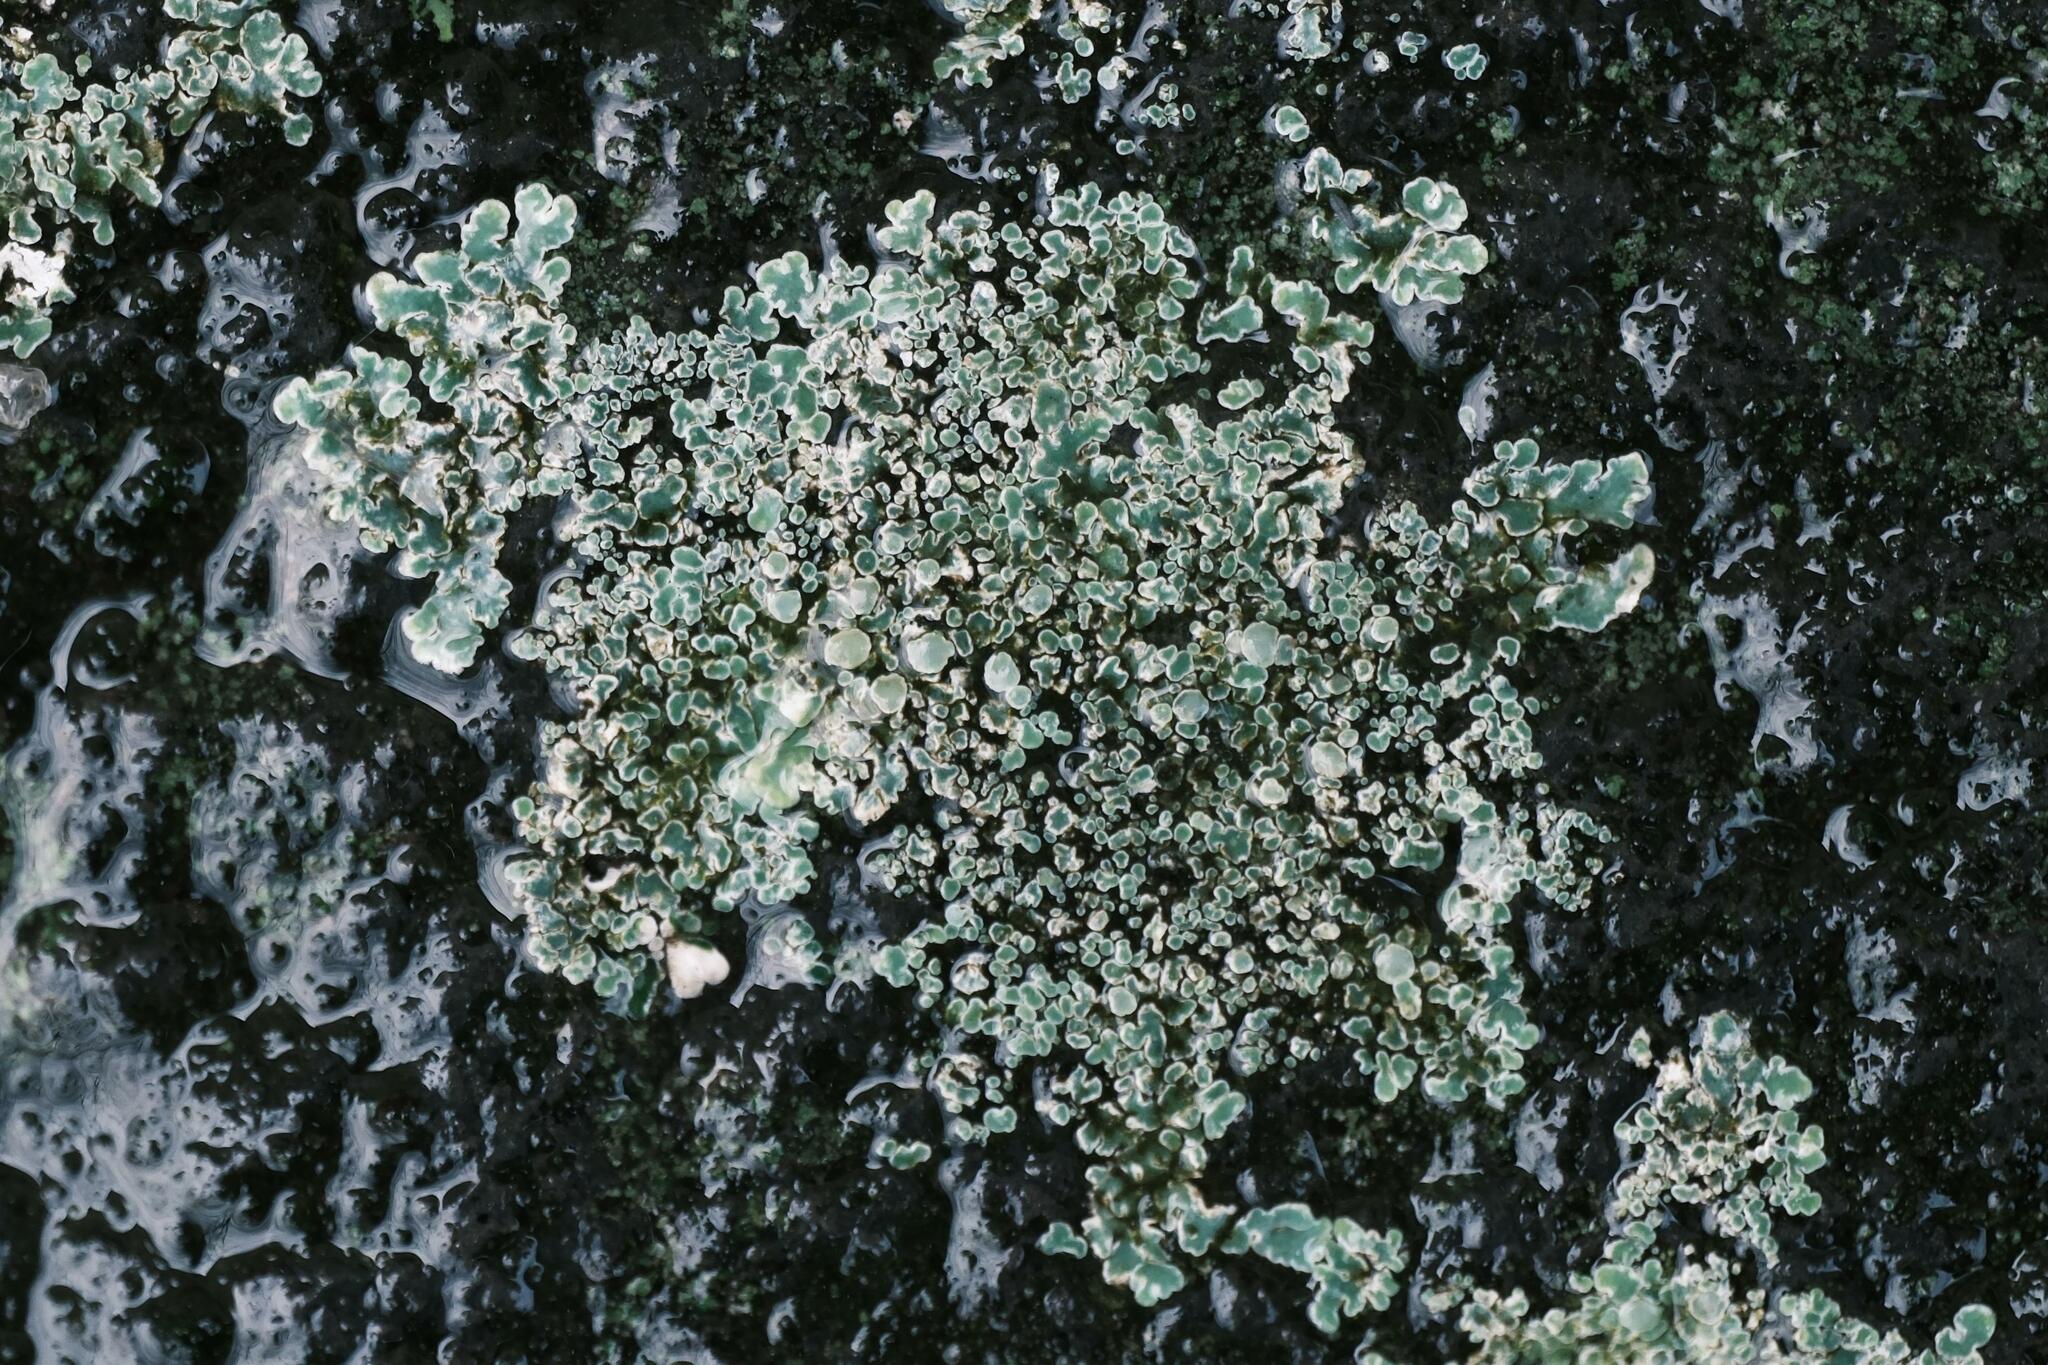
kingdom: Fungi
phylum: Ascomycota
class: Lecanoromycetes
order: Lecanorales
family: Lecanoraceae
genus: Protoparmeliopsis
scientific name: Protoparmeliopsis muralis
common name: Stonewall rim lichen
